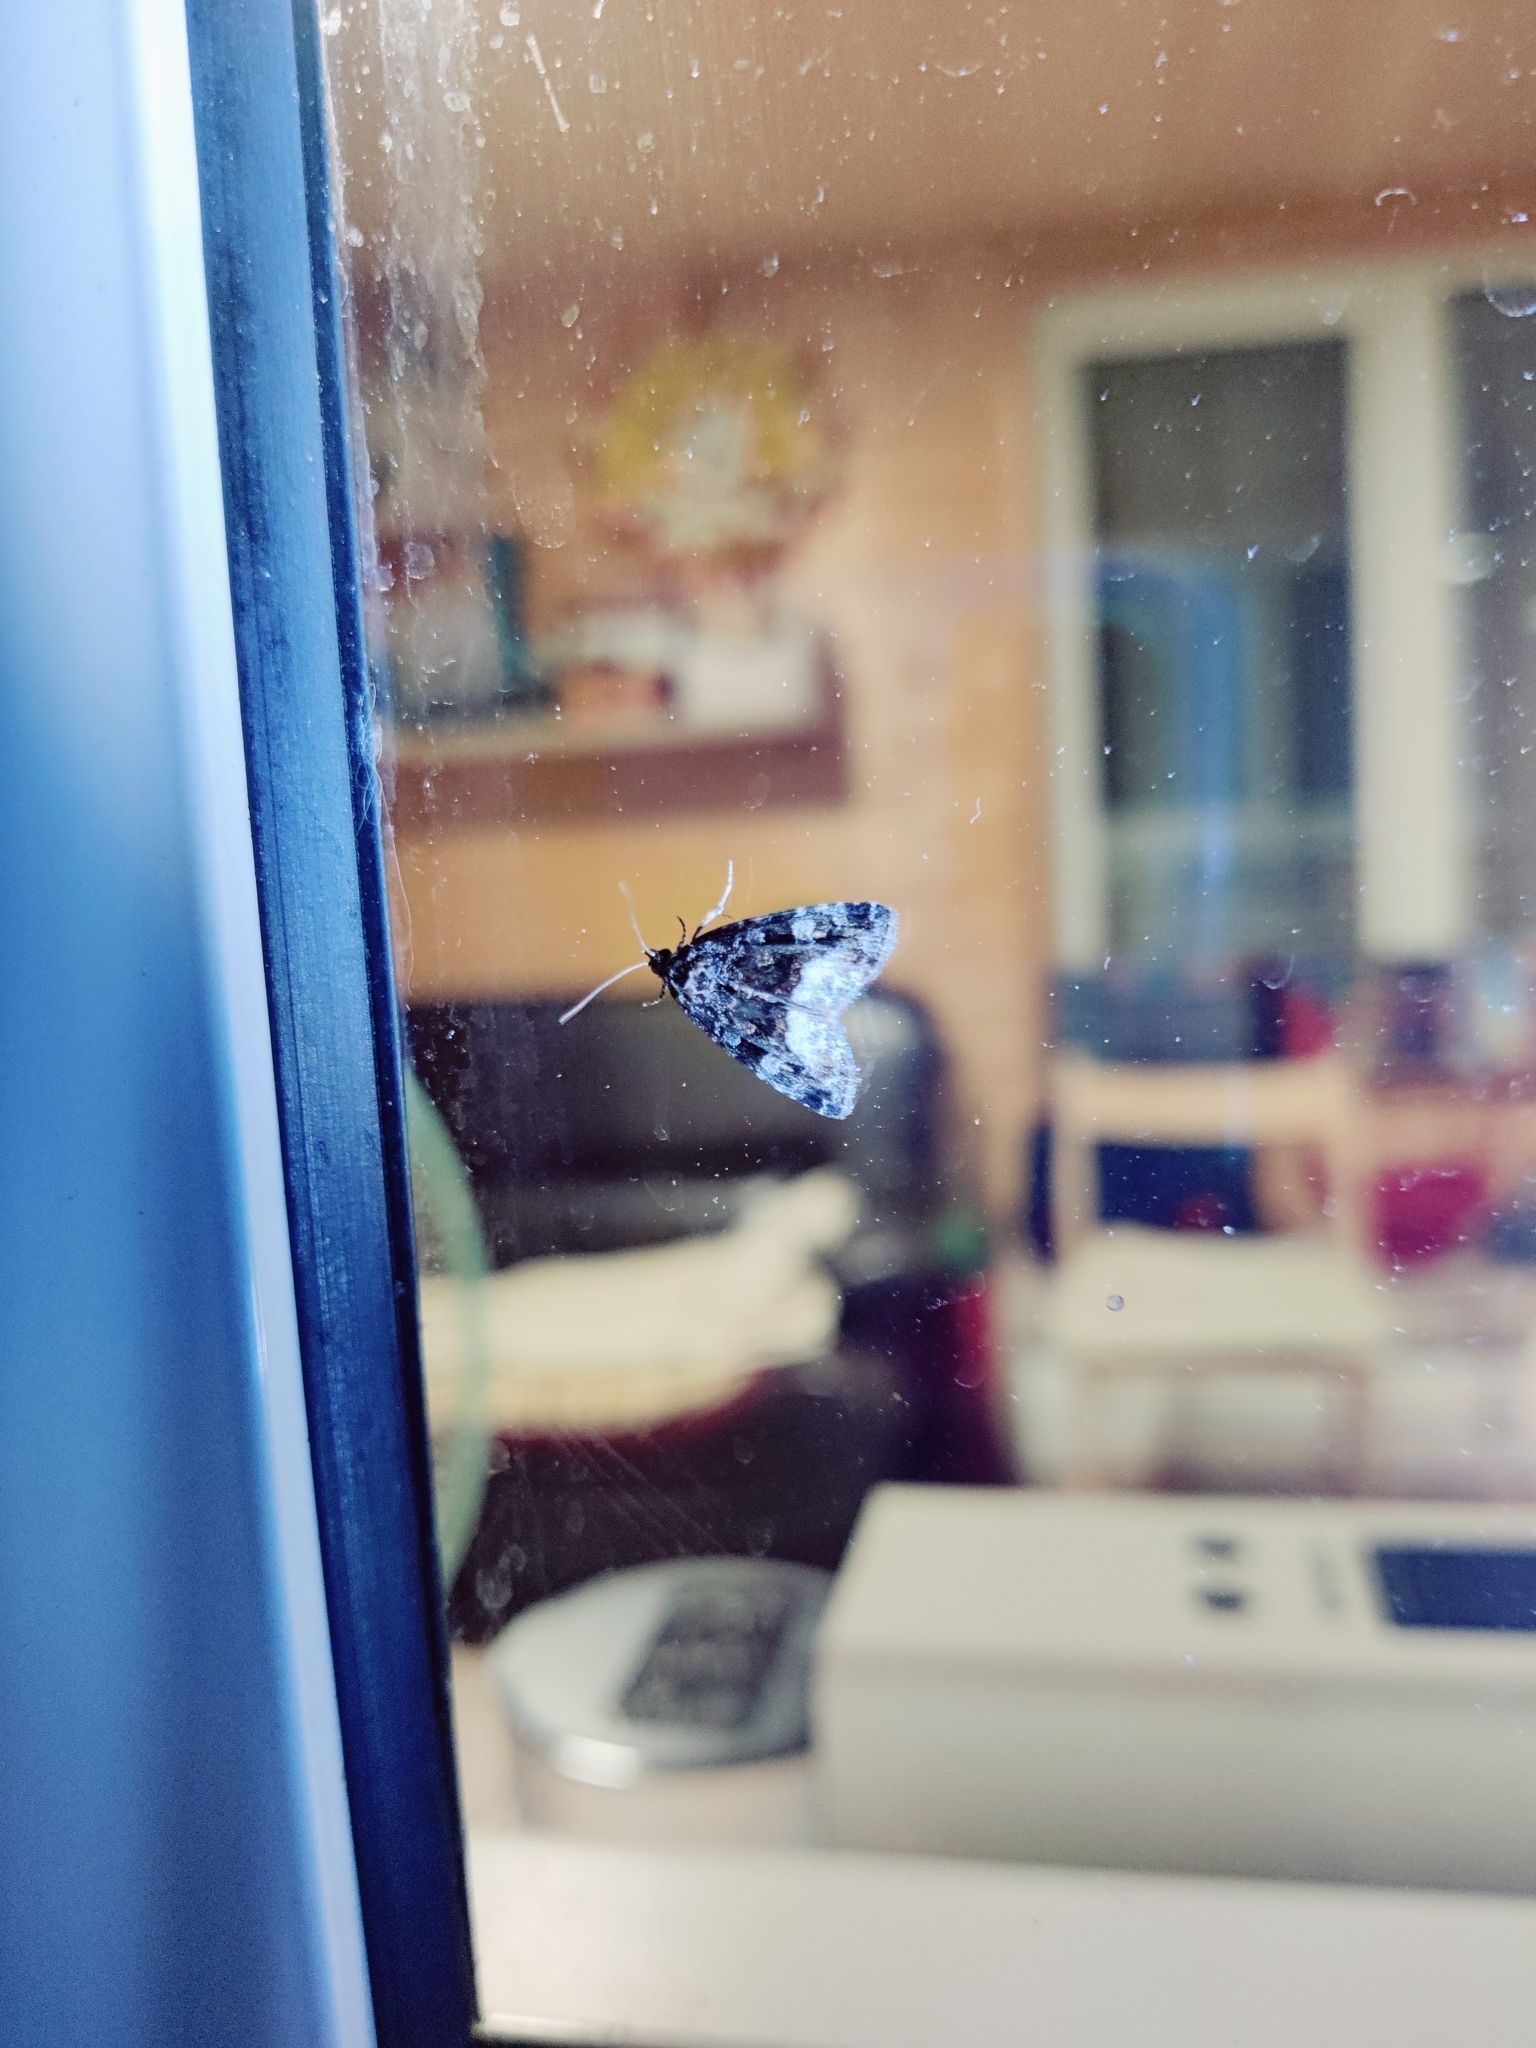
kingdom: Animalia
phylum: Arthropoda
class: Insecta
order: Lepidoptera
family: Noctuidae
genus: Deltote
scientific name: Deltote pygarga
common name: Marbled white spot
